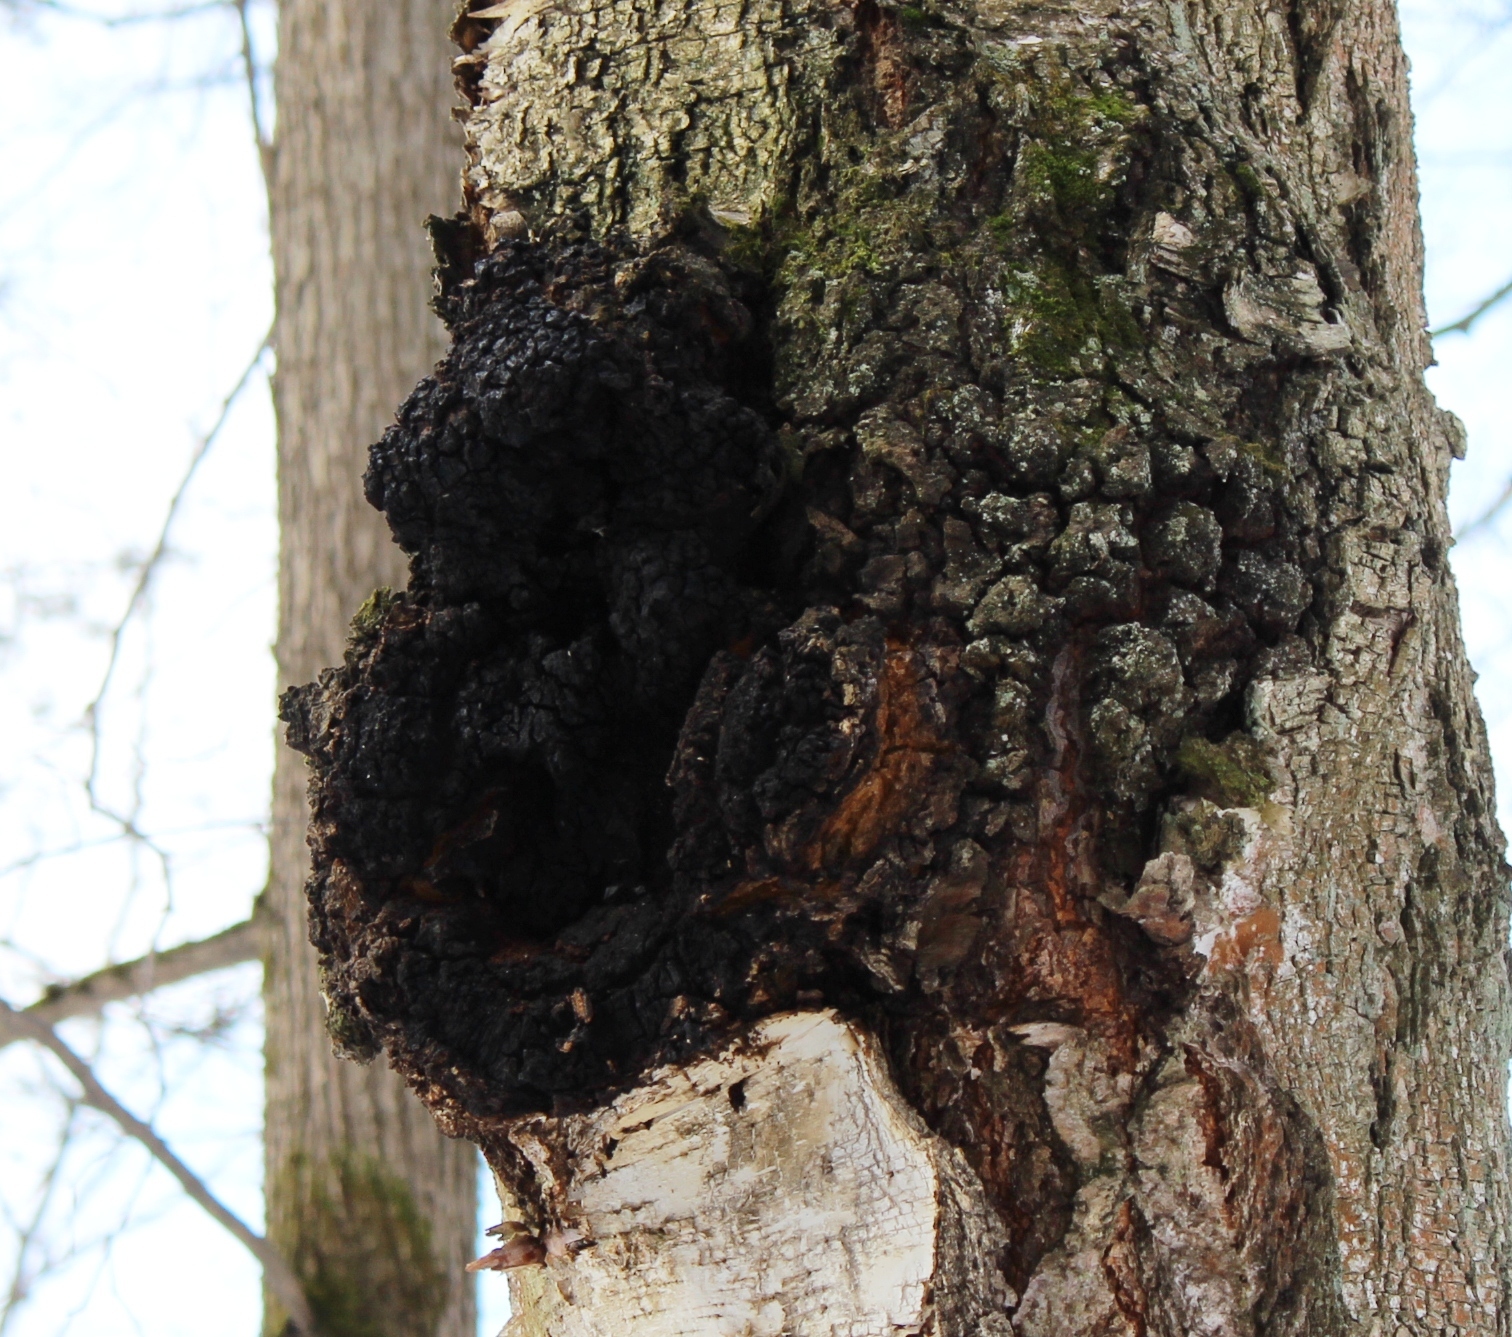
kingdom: Fungi
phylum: Basidiomycota
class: Agaricomycetes
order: Hymenochaetales
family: Hymenochaetaceae
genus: Inonotus
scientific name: Inonotus obliquus
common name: Chaga
